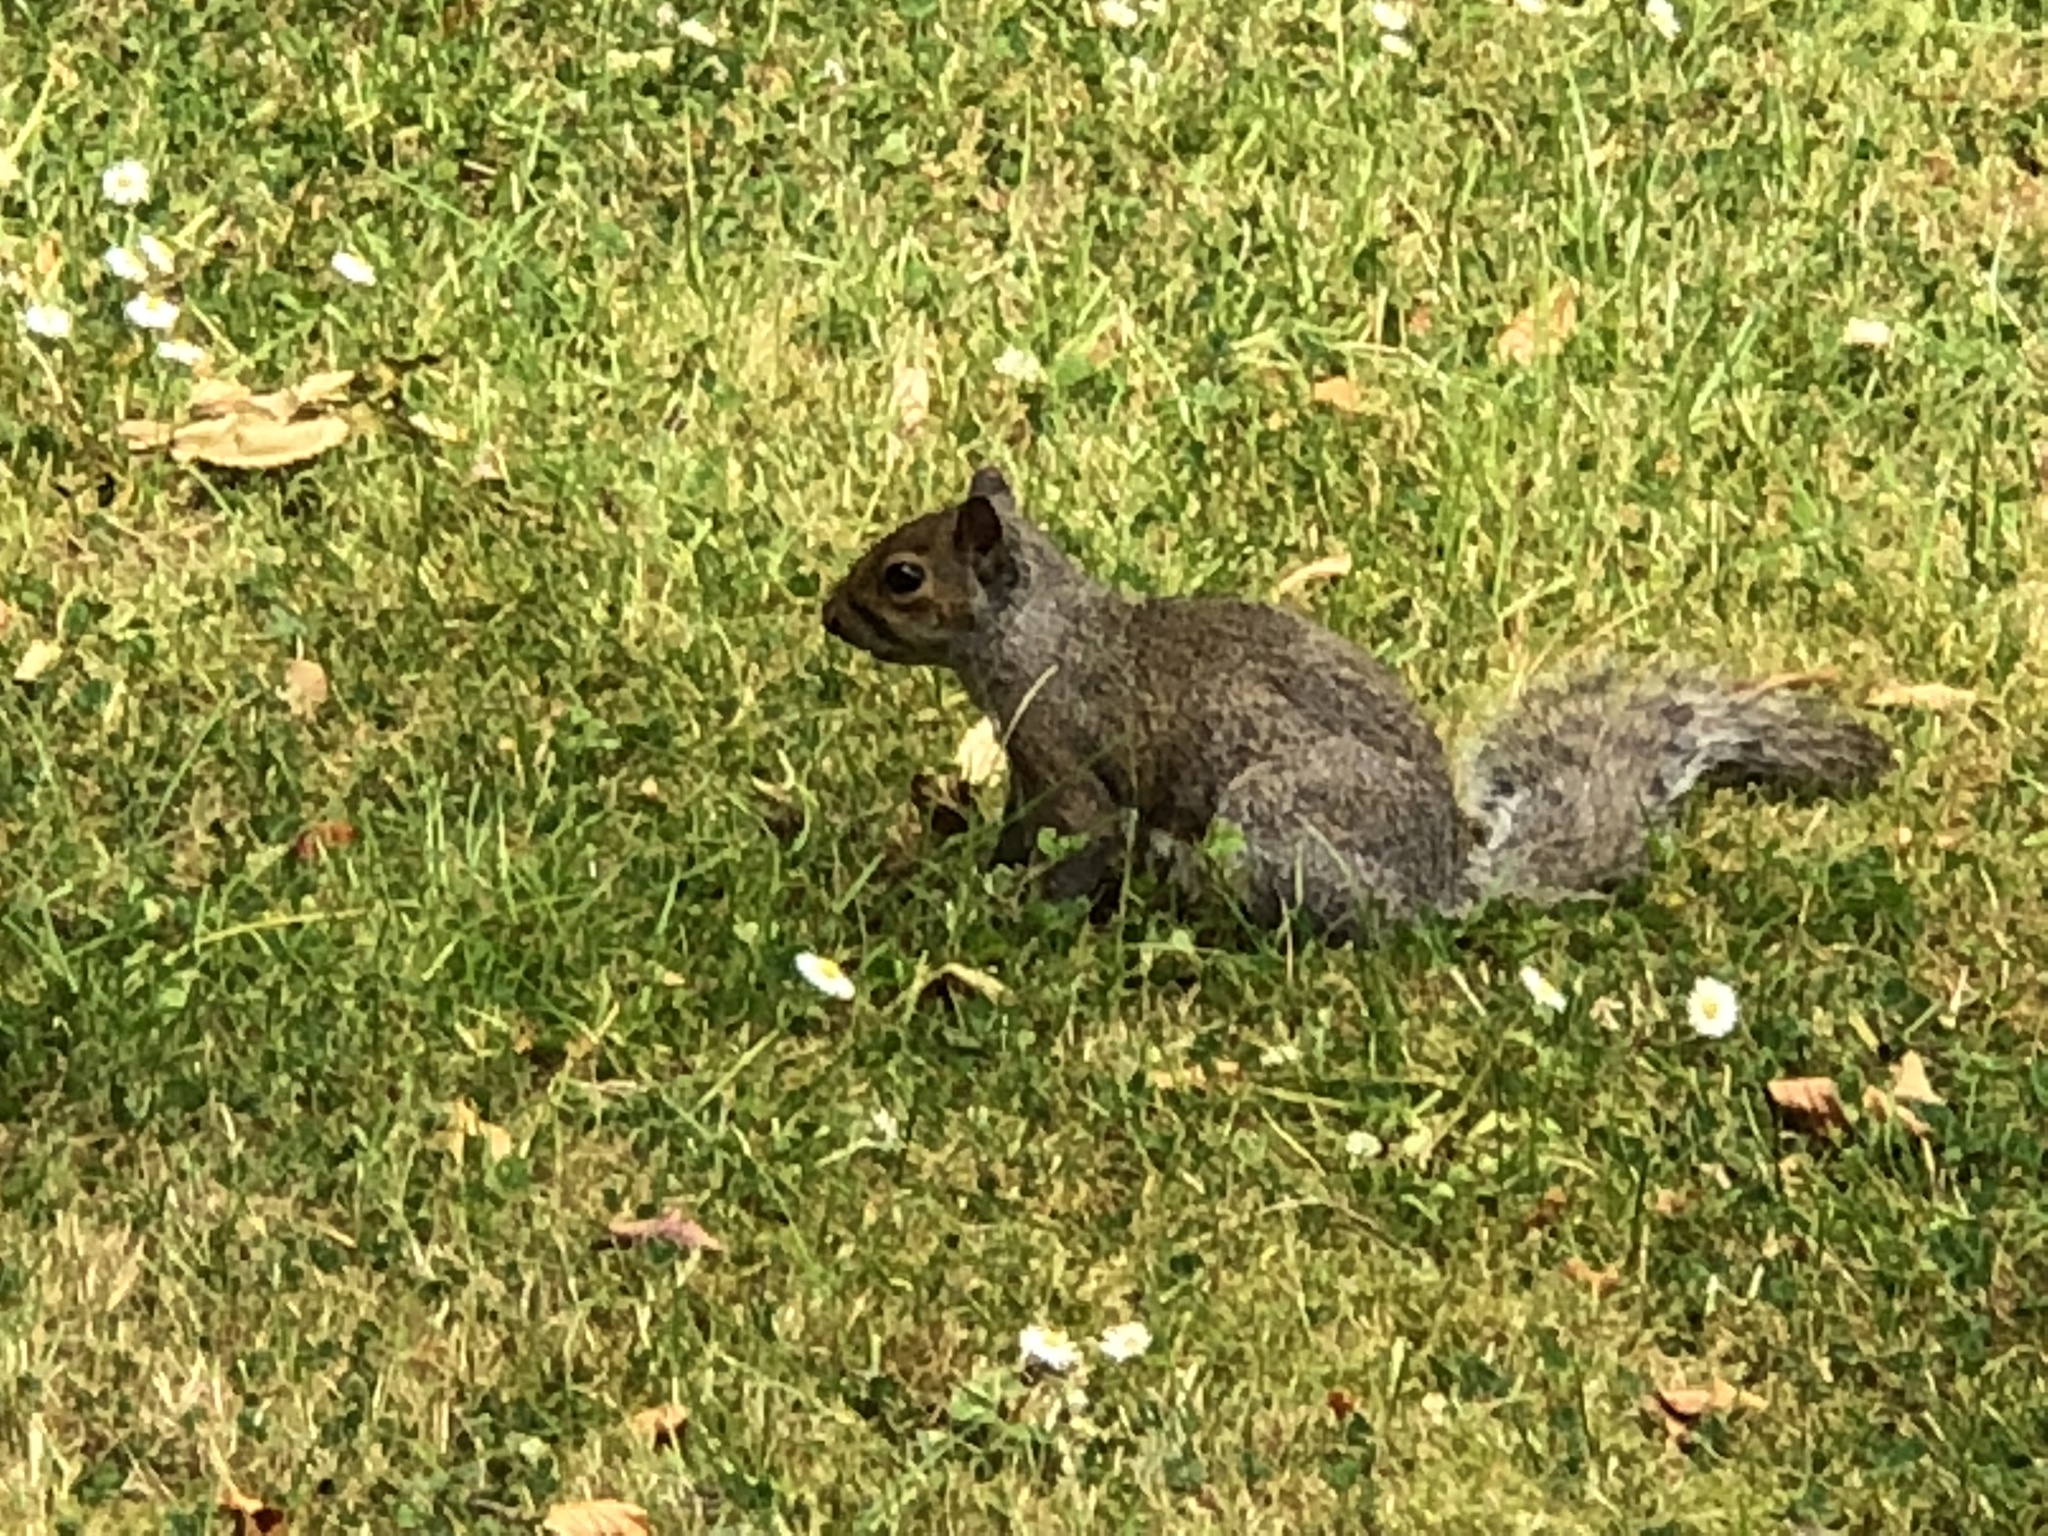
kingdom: Animalia
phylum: Chordata
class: Mammalia
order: Rodentia
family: Sciuridae
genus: Sciurus
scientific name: Sciurus carolinensis
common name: Eastern gray squirrel
